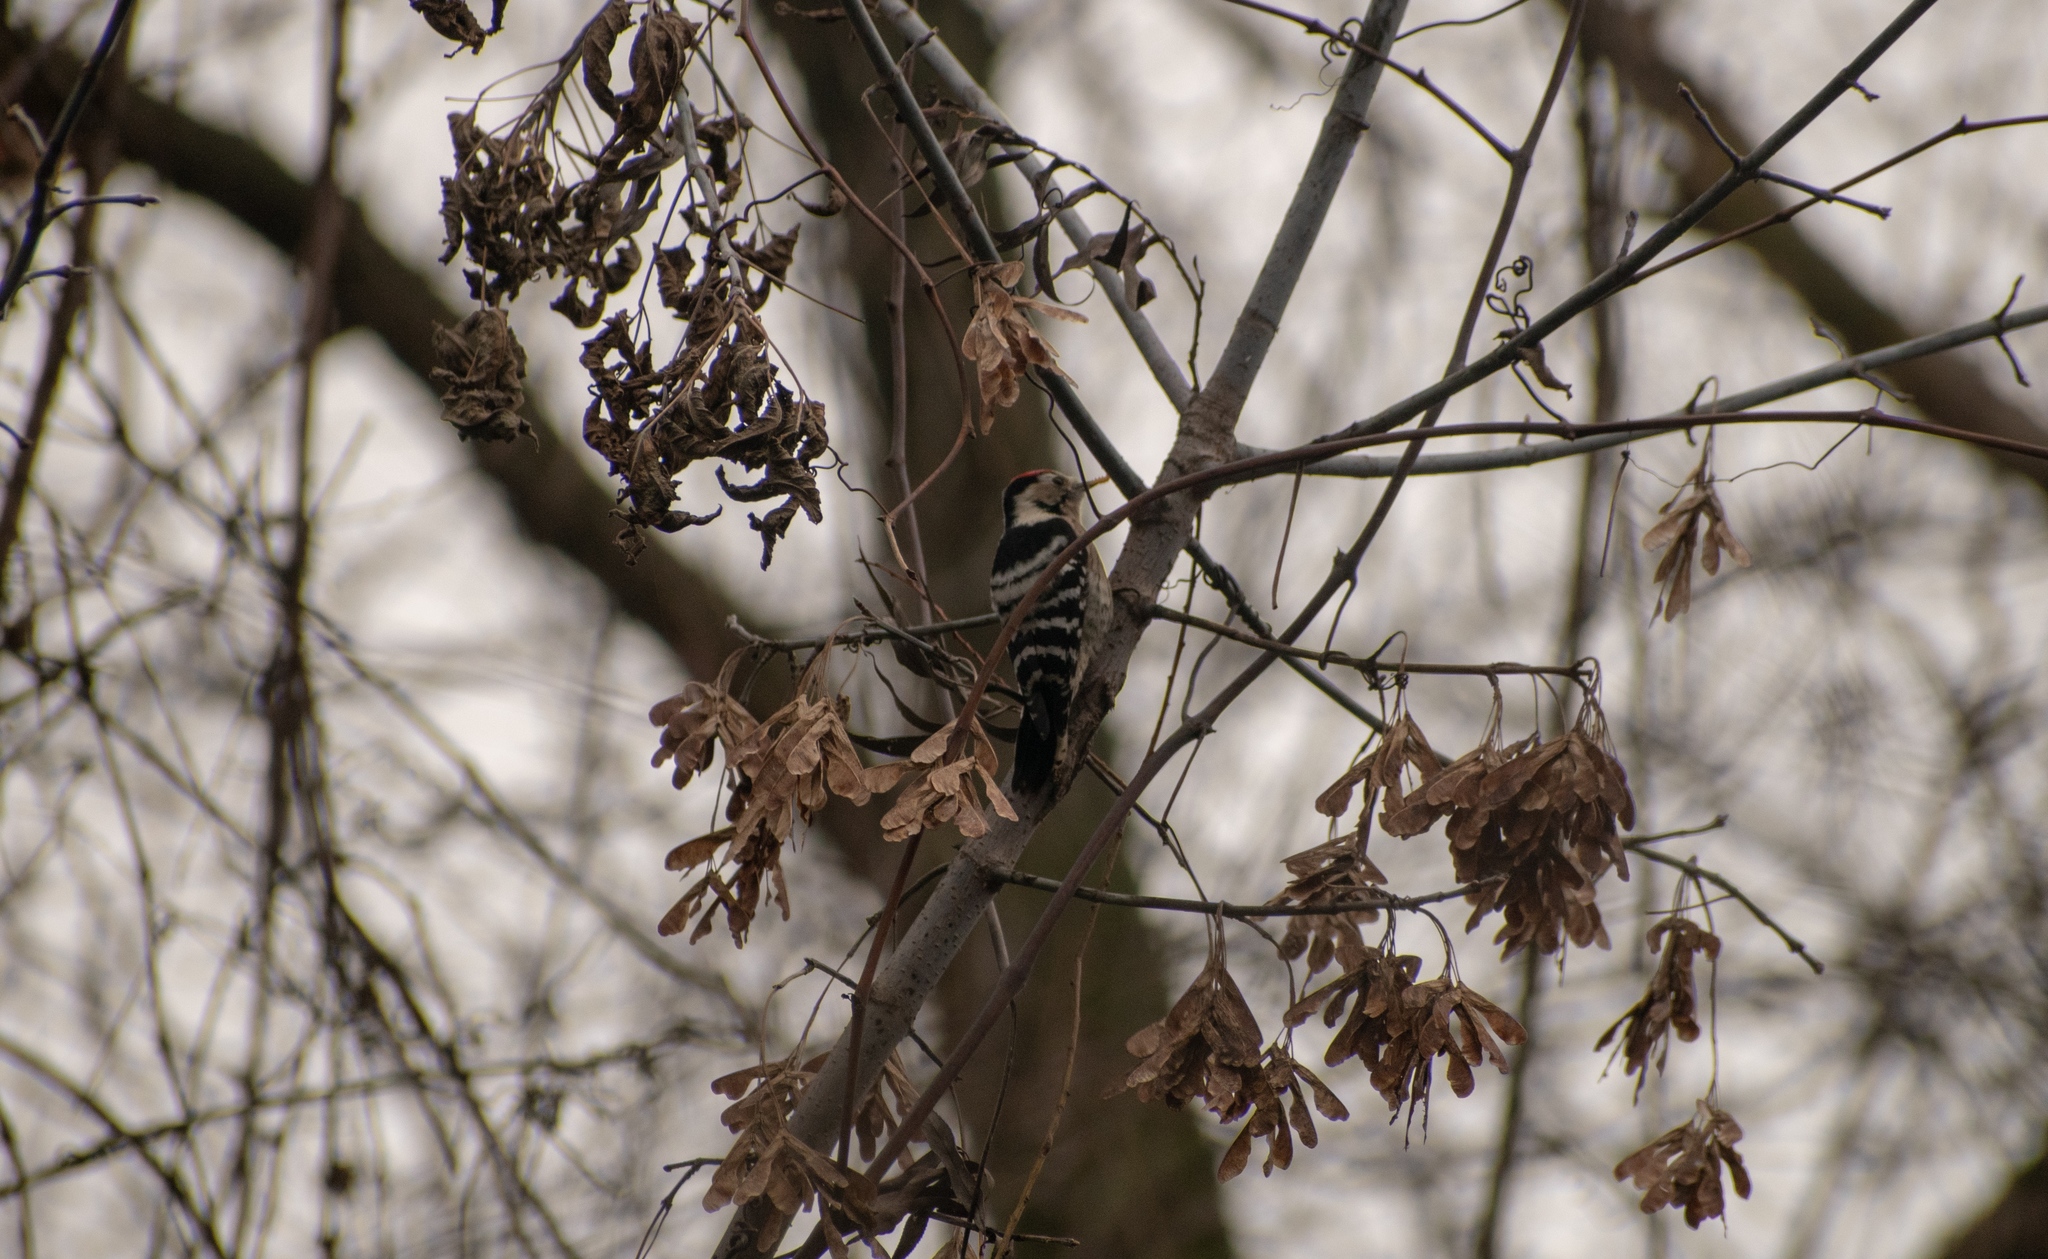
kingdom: Animalia
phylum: Chordata
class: Aves
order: Piciformes
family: Picidae
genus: Dryobates
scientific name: Dryobates minor
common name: Lesser spotted woodpecker
